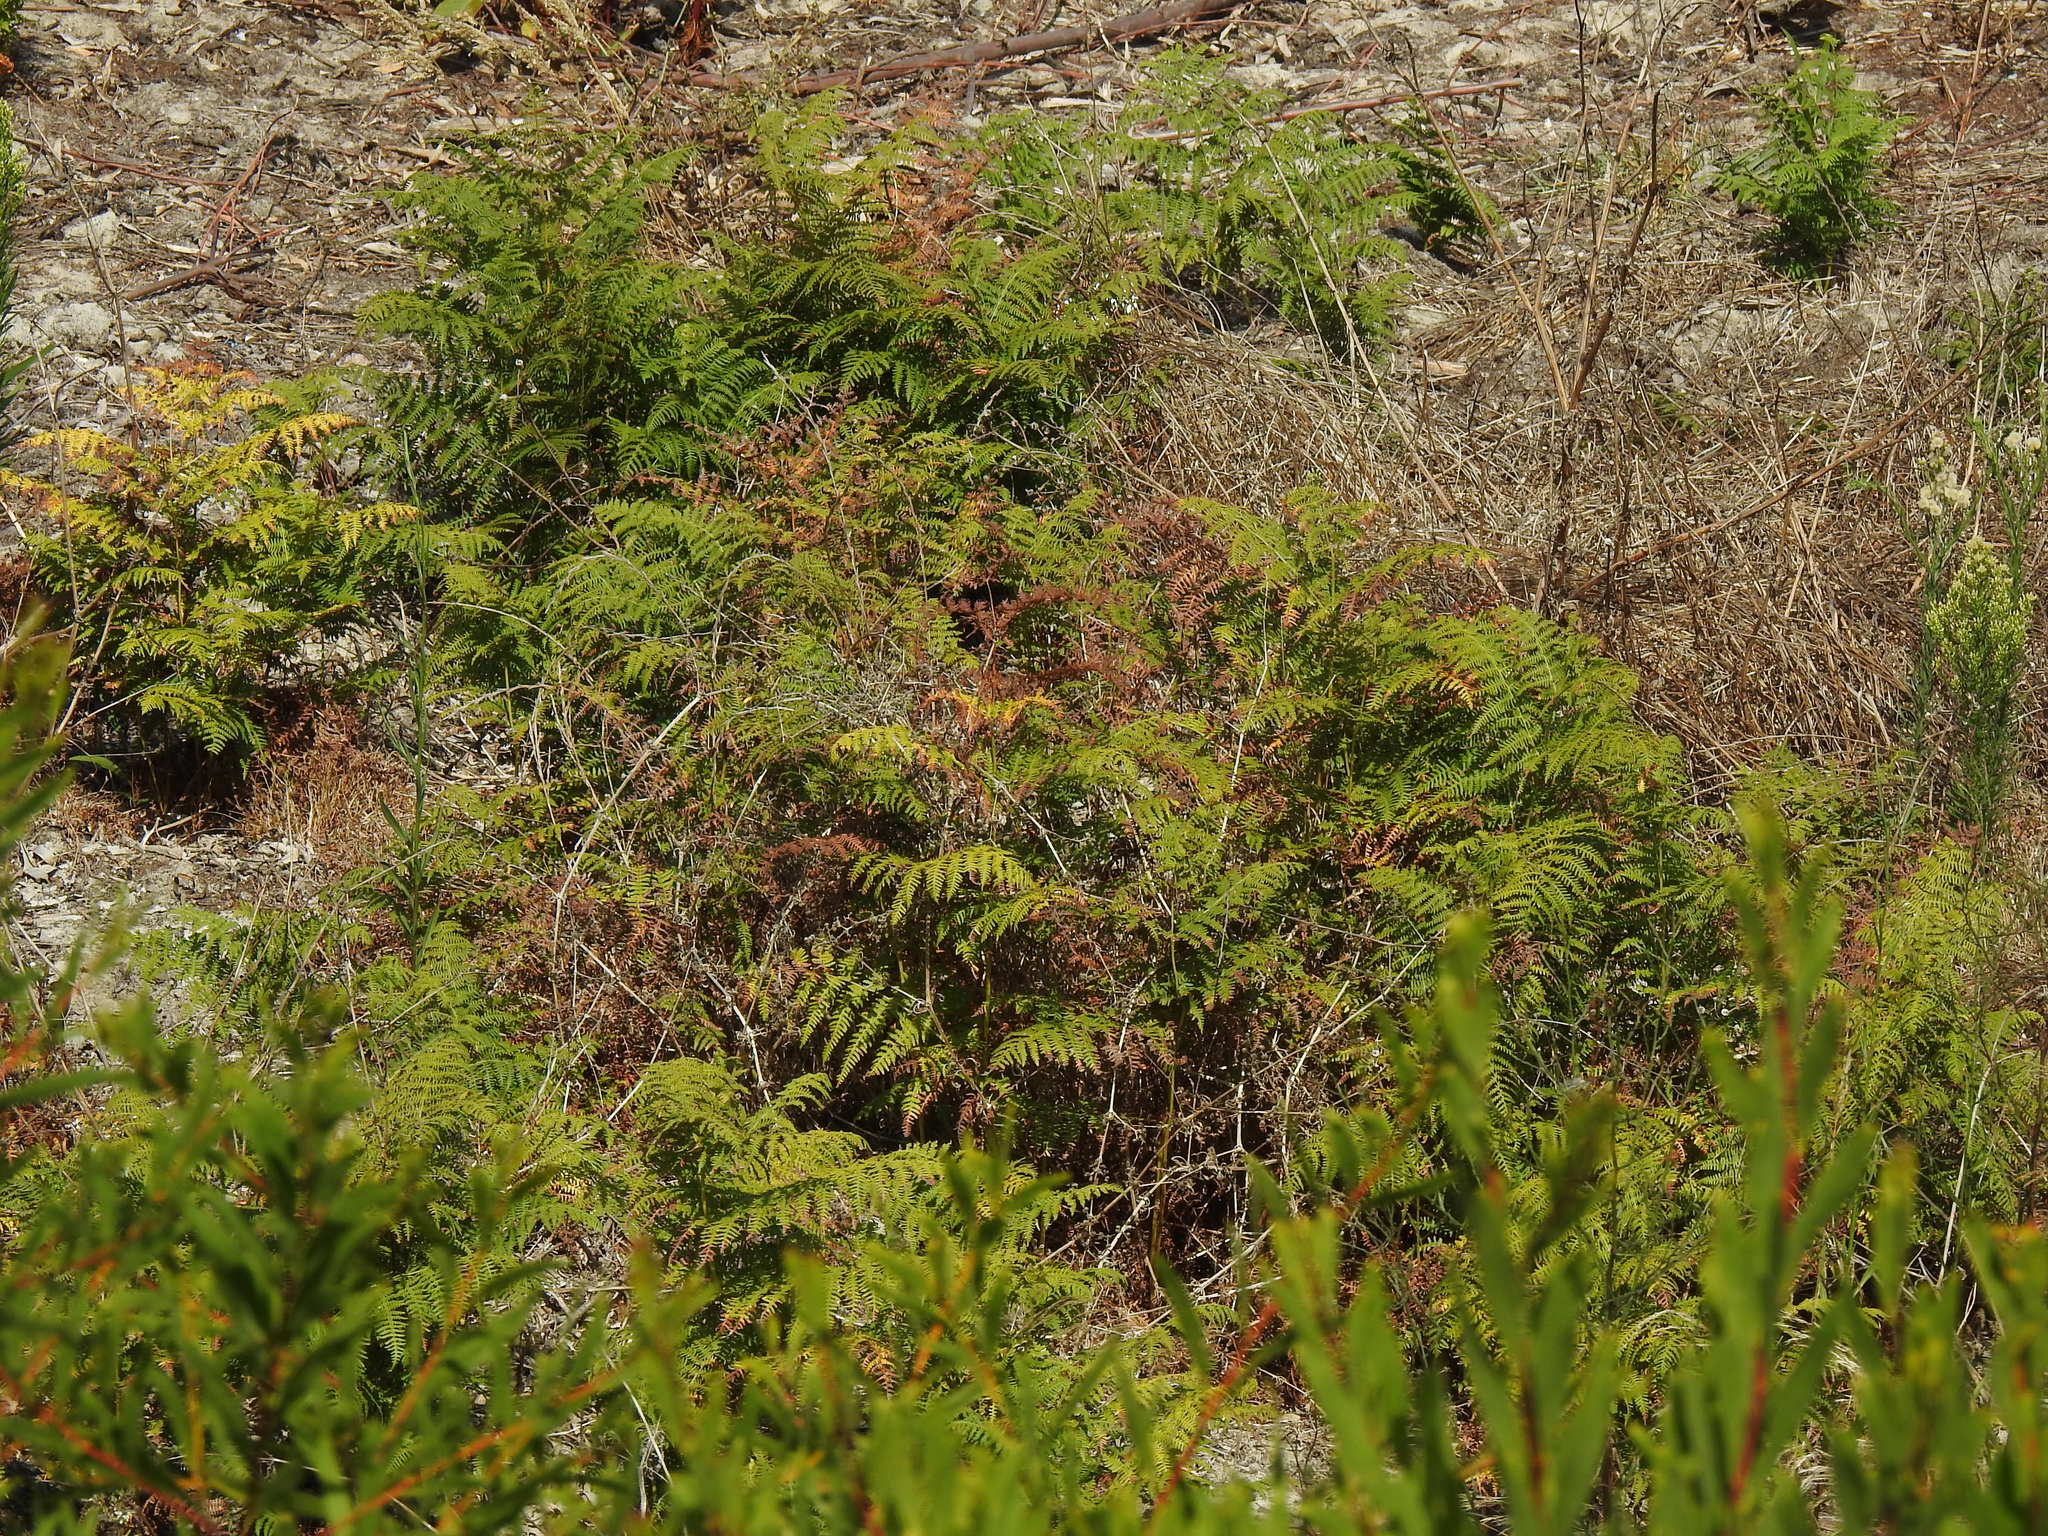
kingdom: Plantae
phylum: Tracheophyta
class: Polypodiopsida
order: Polypodiales
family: Dennstaedtiaceae
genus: Pteridium
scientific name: Pteridium aquilinum
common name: Bracken
